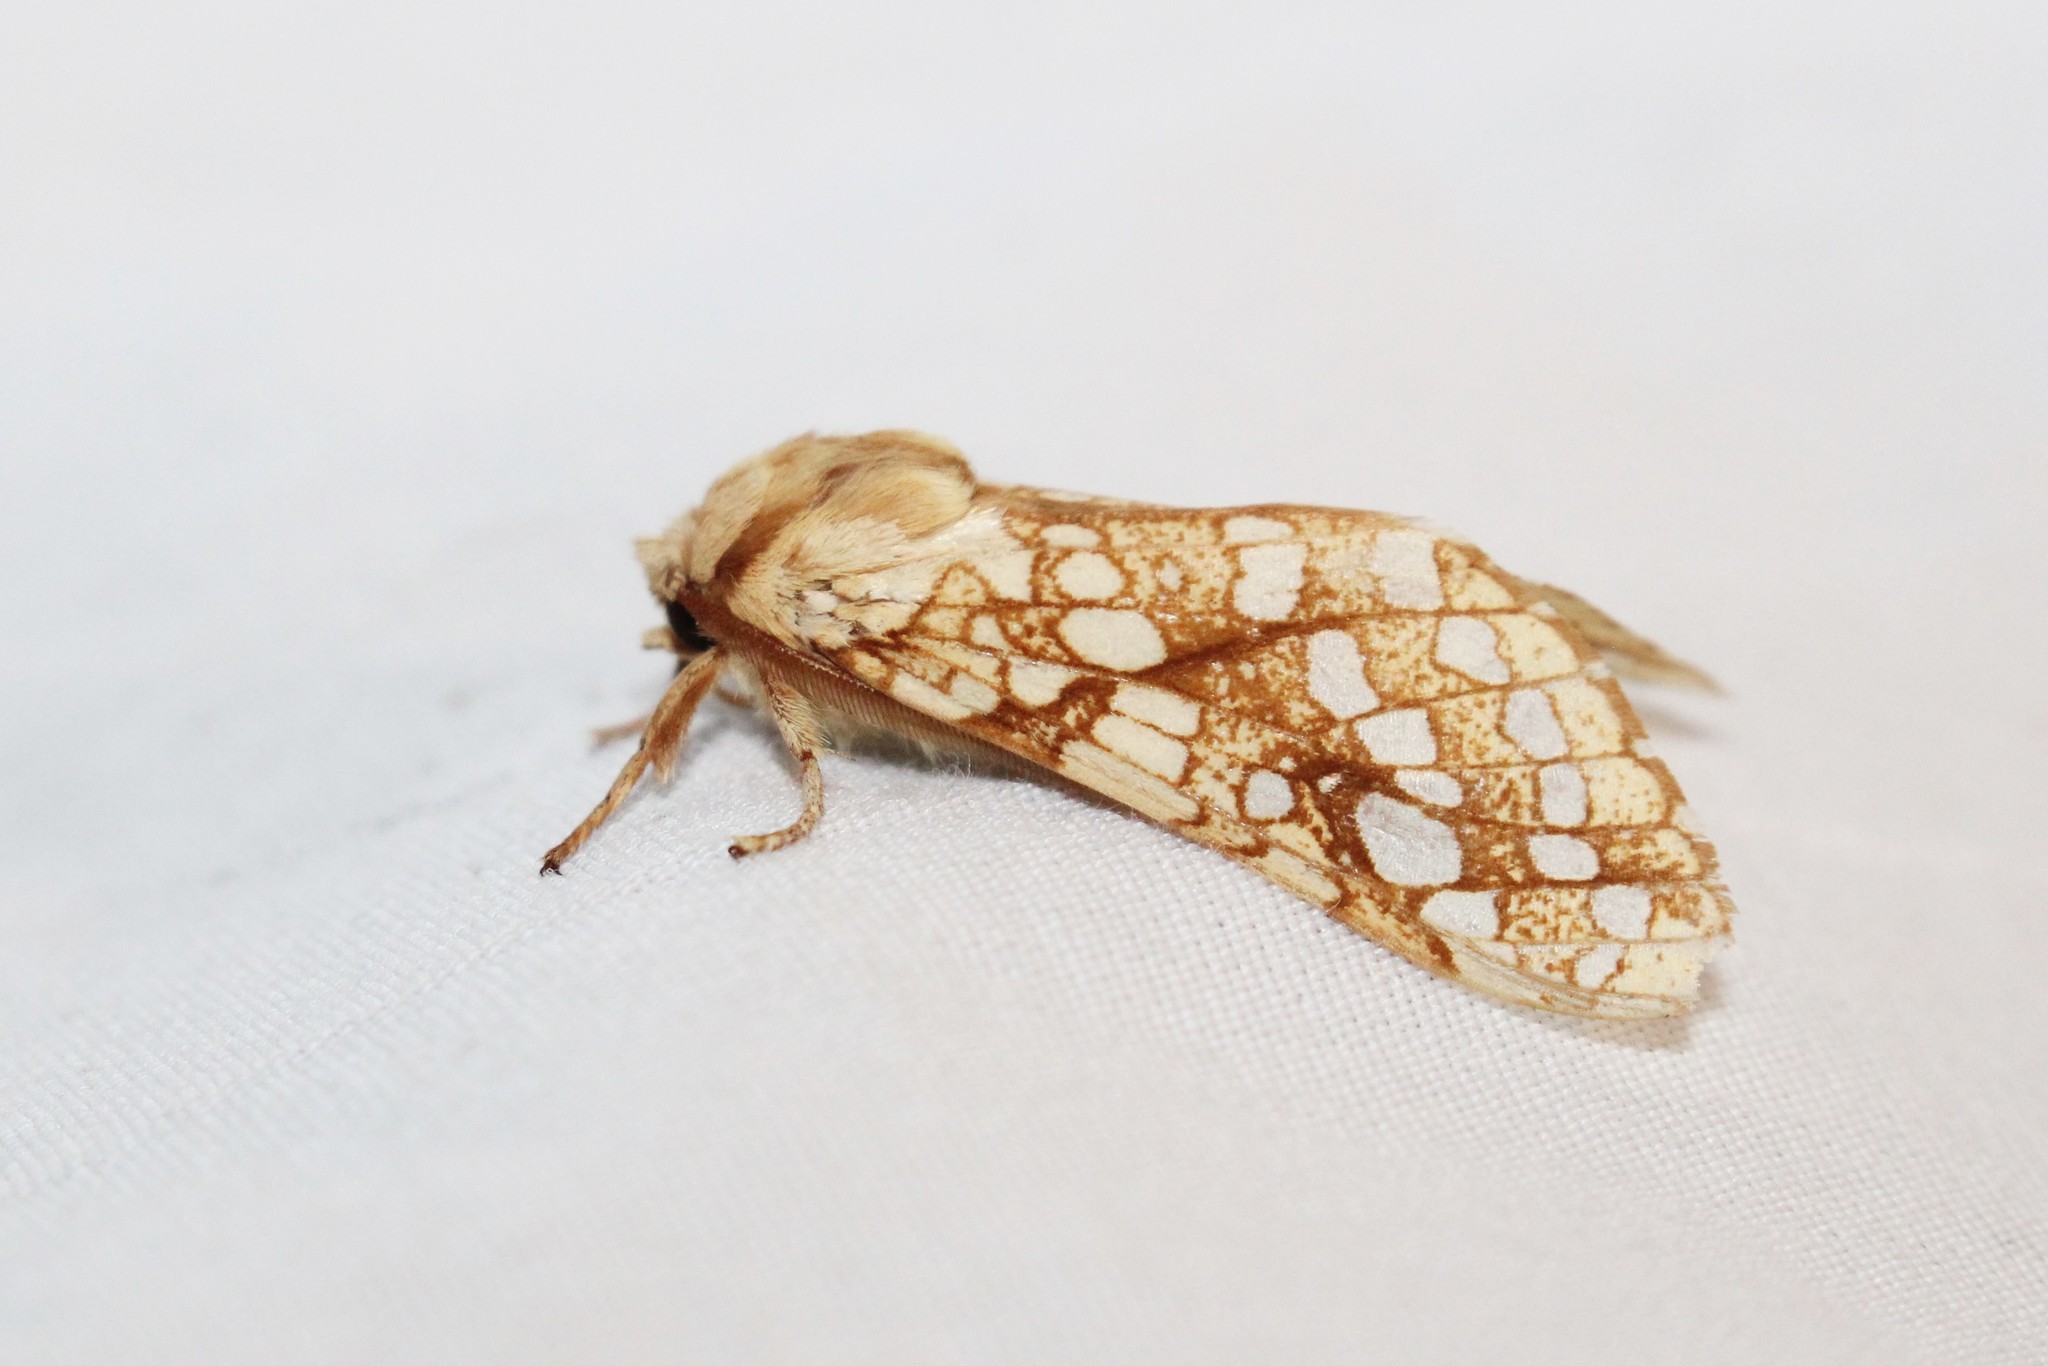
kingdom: Animalia
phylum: Arthropoda
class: Insecta
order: Lepidoptera
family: Erebidae
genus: Lophocampa
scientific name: Lophocampa caryae
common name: Hickory tussock moth
